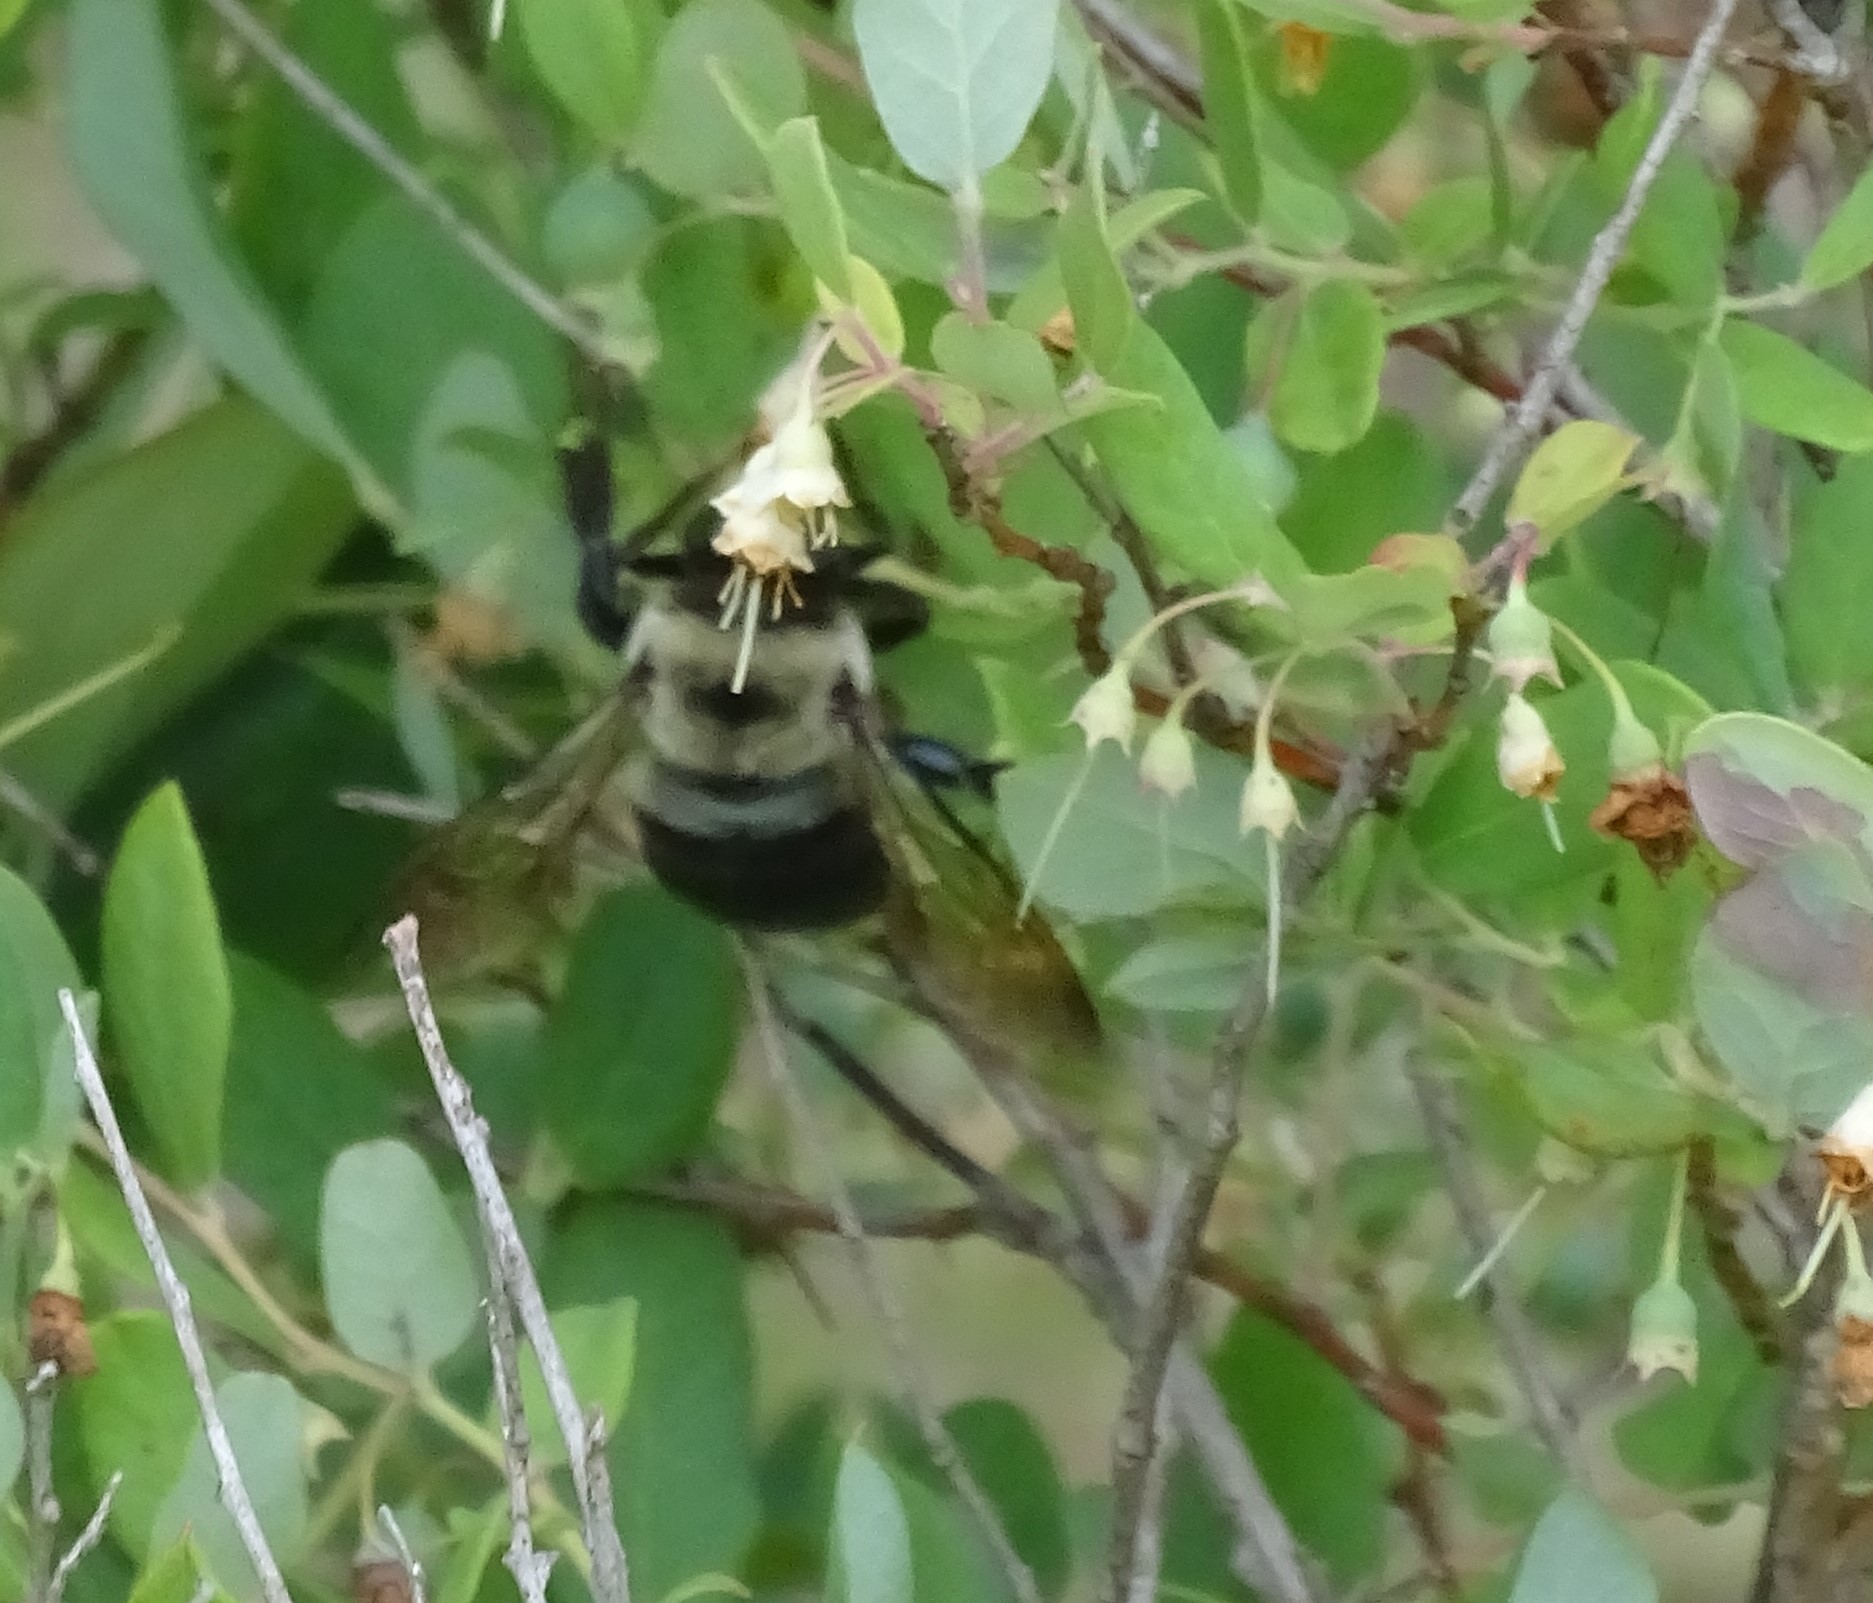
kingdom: Animalia
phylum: Arthropoda
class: Insecta
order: Hymenoptera
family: Apidae
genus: Xylocopa
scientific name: Xylocopa virginica
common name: Carpenter bee
